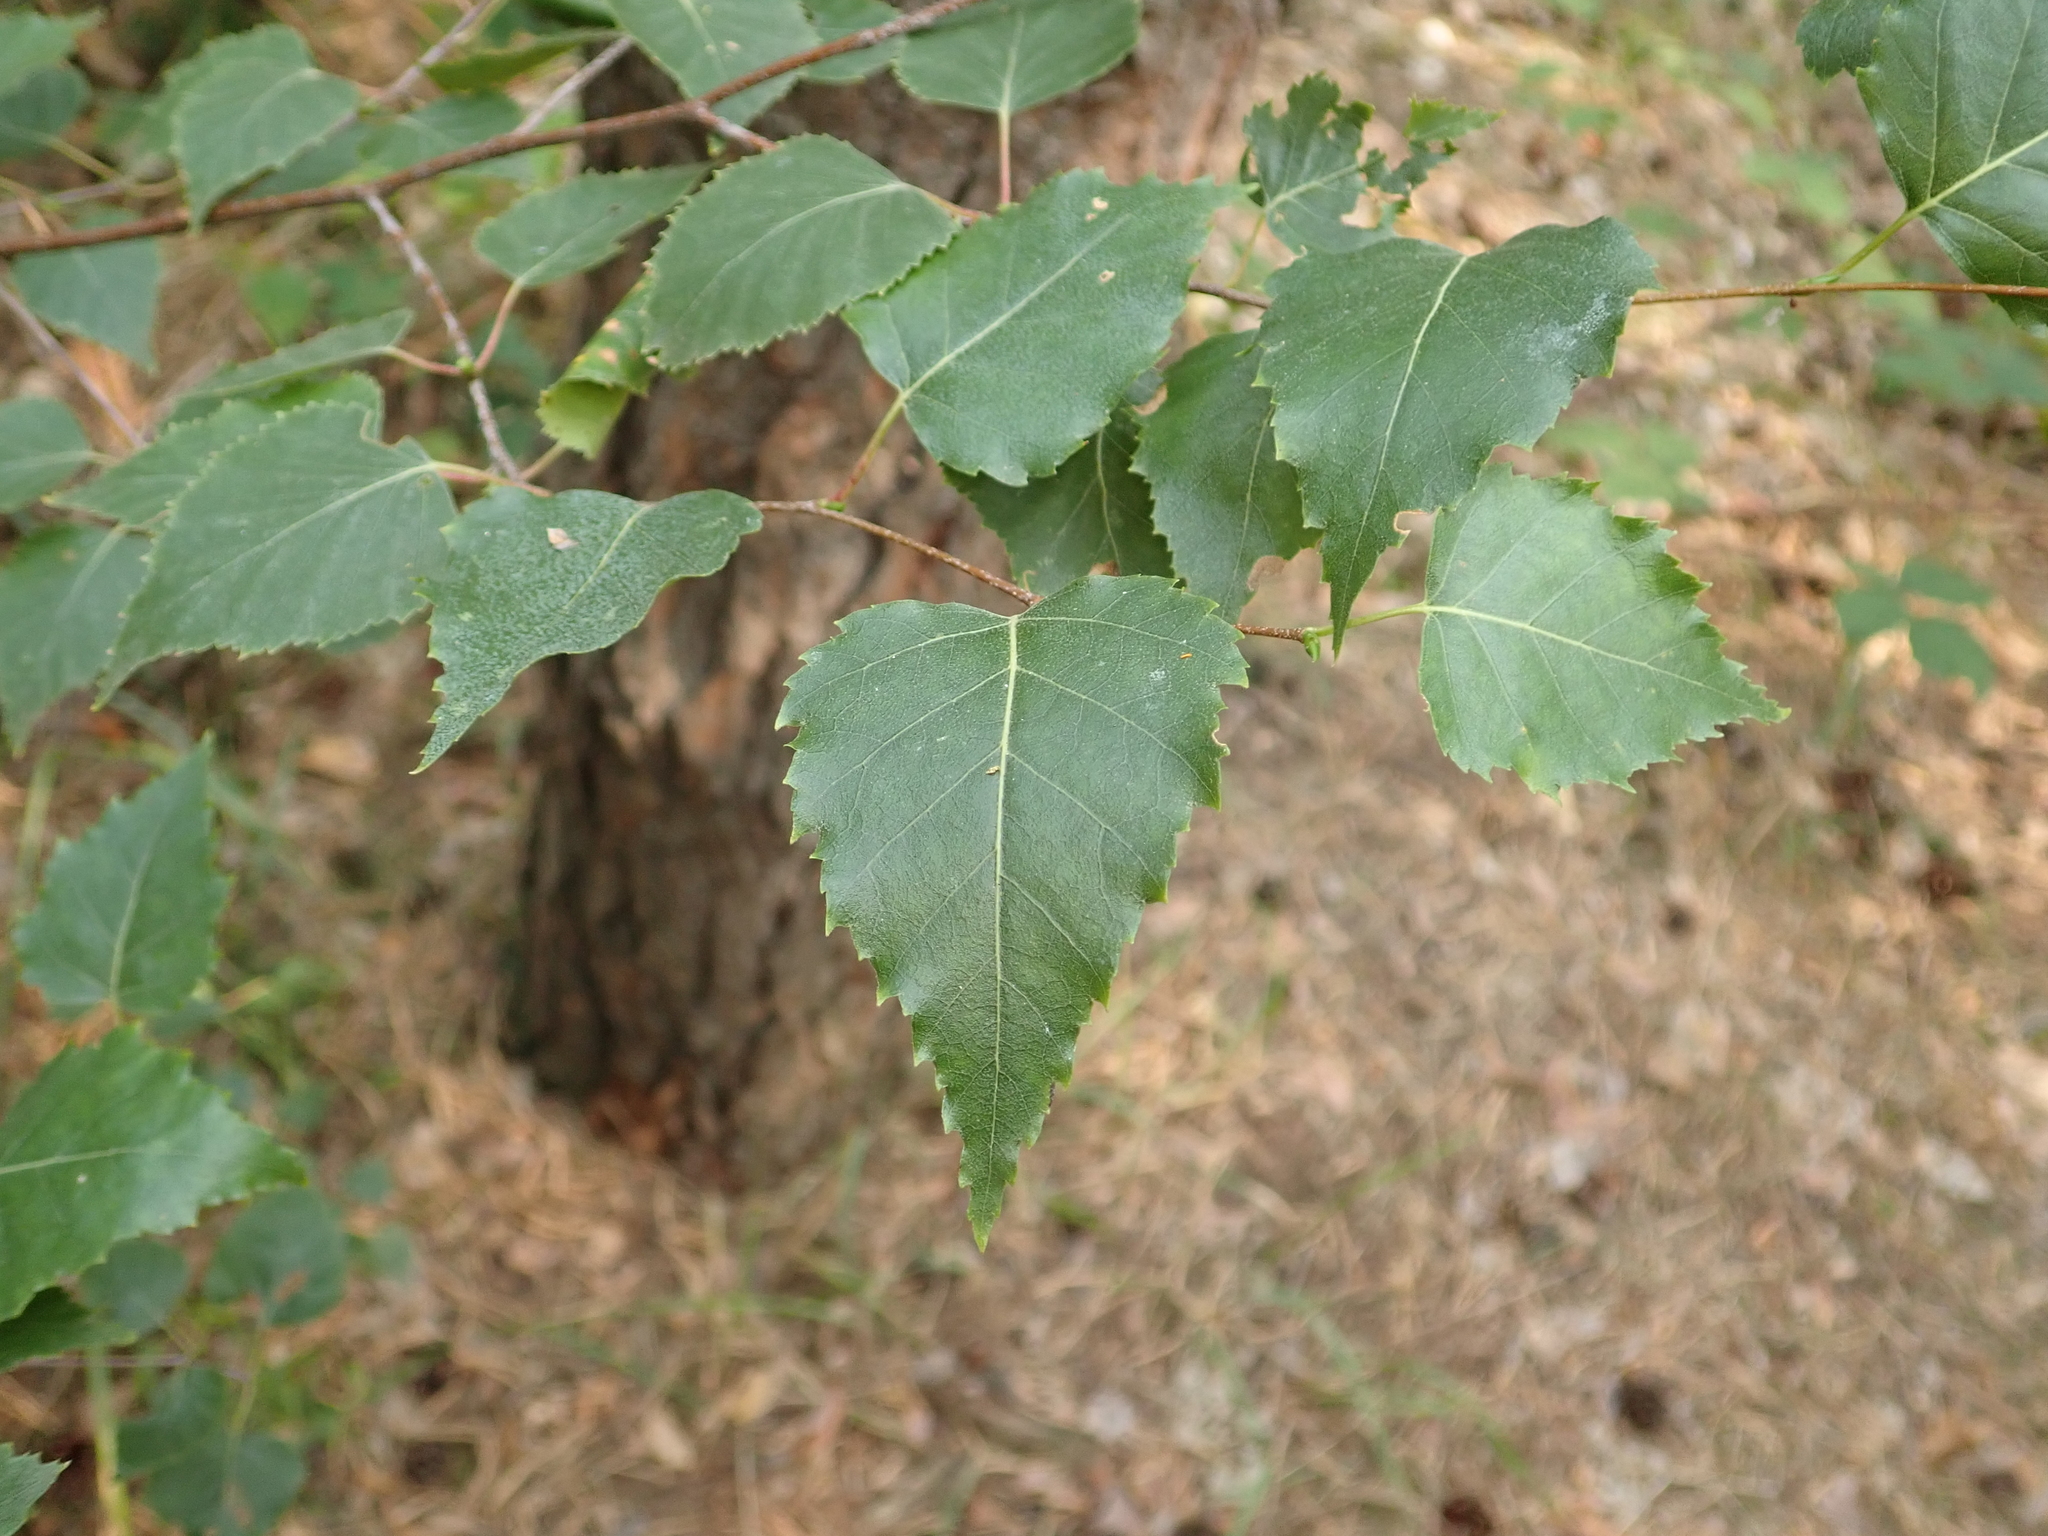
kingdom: Plantae
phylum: Tracheophyta
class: Magnoliopsida
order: Fagales
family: Betulaceae
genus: Betula
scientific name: Betula pendula
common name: Silver birch
